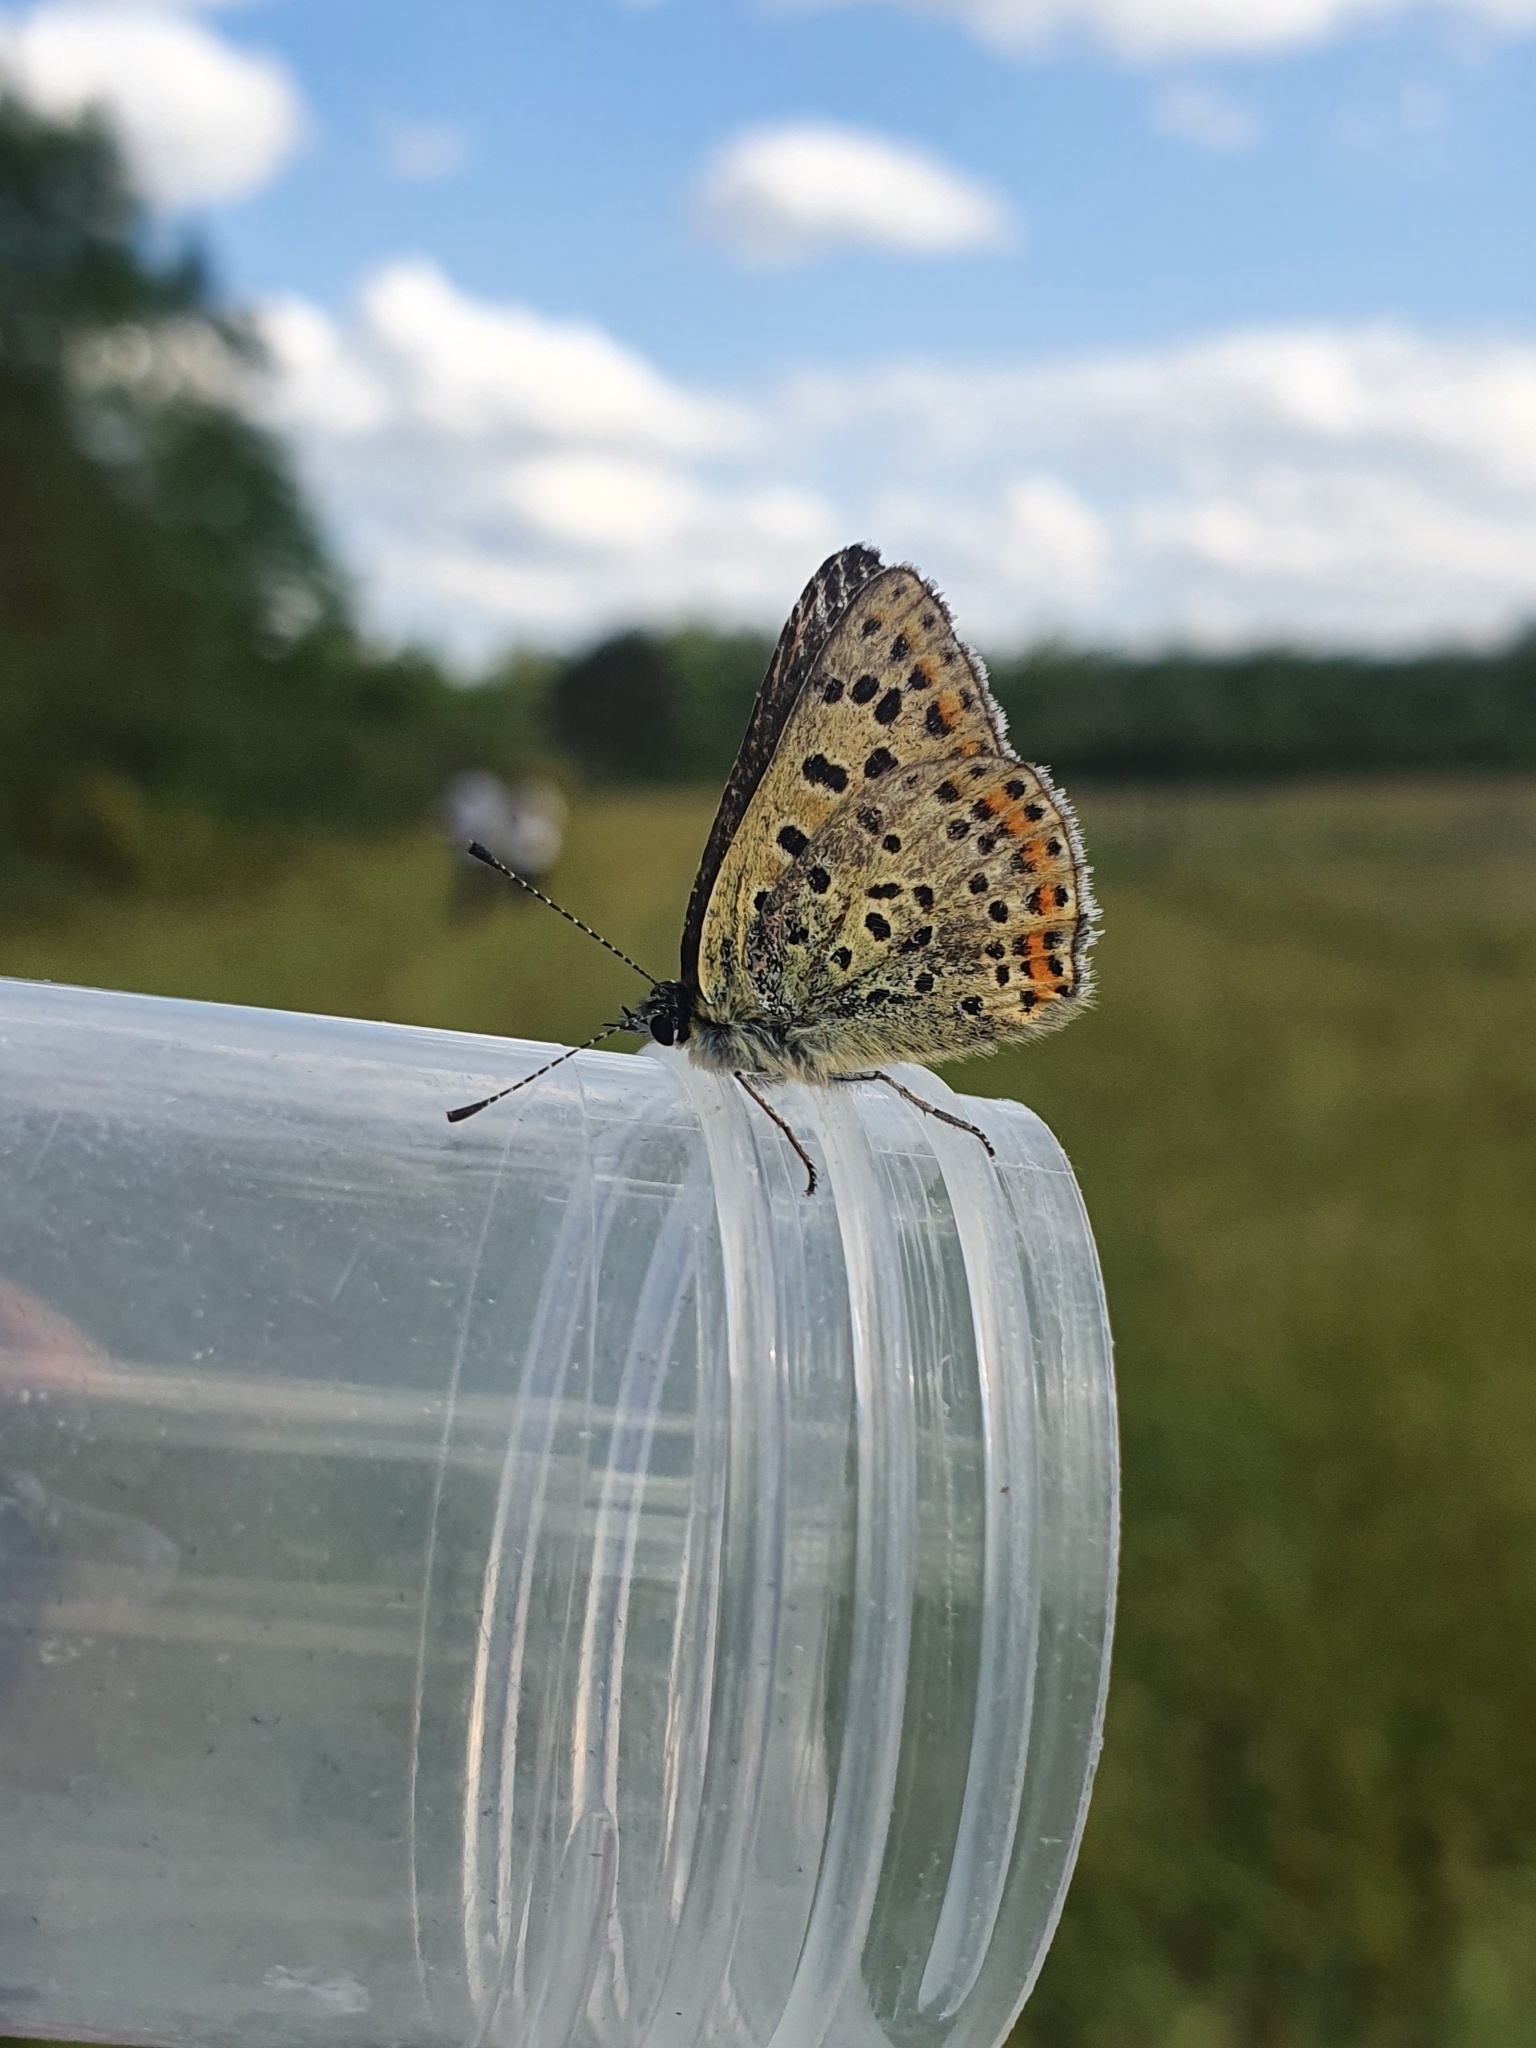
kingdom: Animalia
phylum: Arthropoda
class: Insecta
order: Lepidoptera
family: Lycaenidae
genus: Loweia
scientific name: Loweia tityrus
